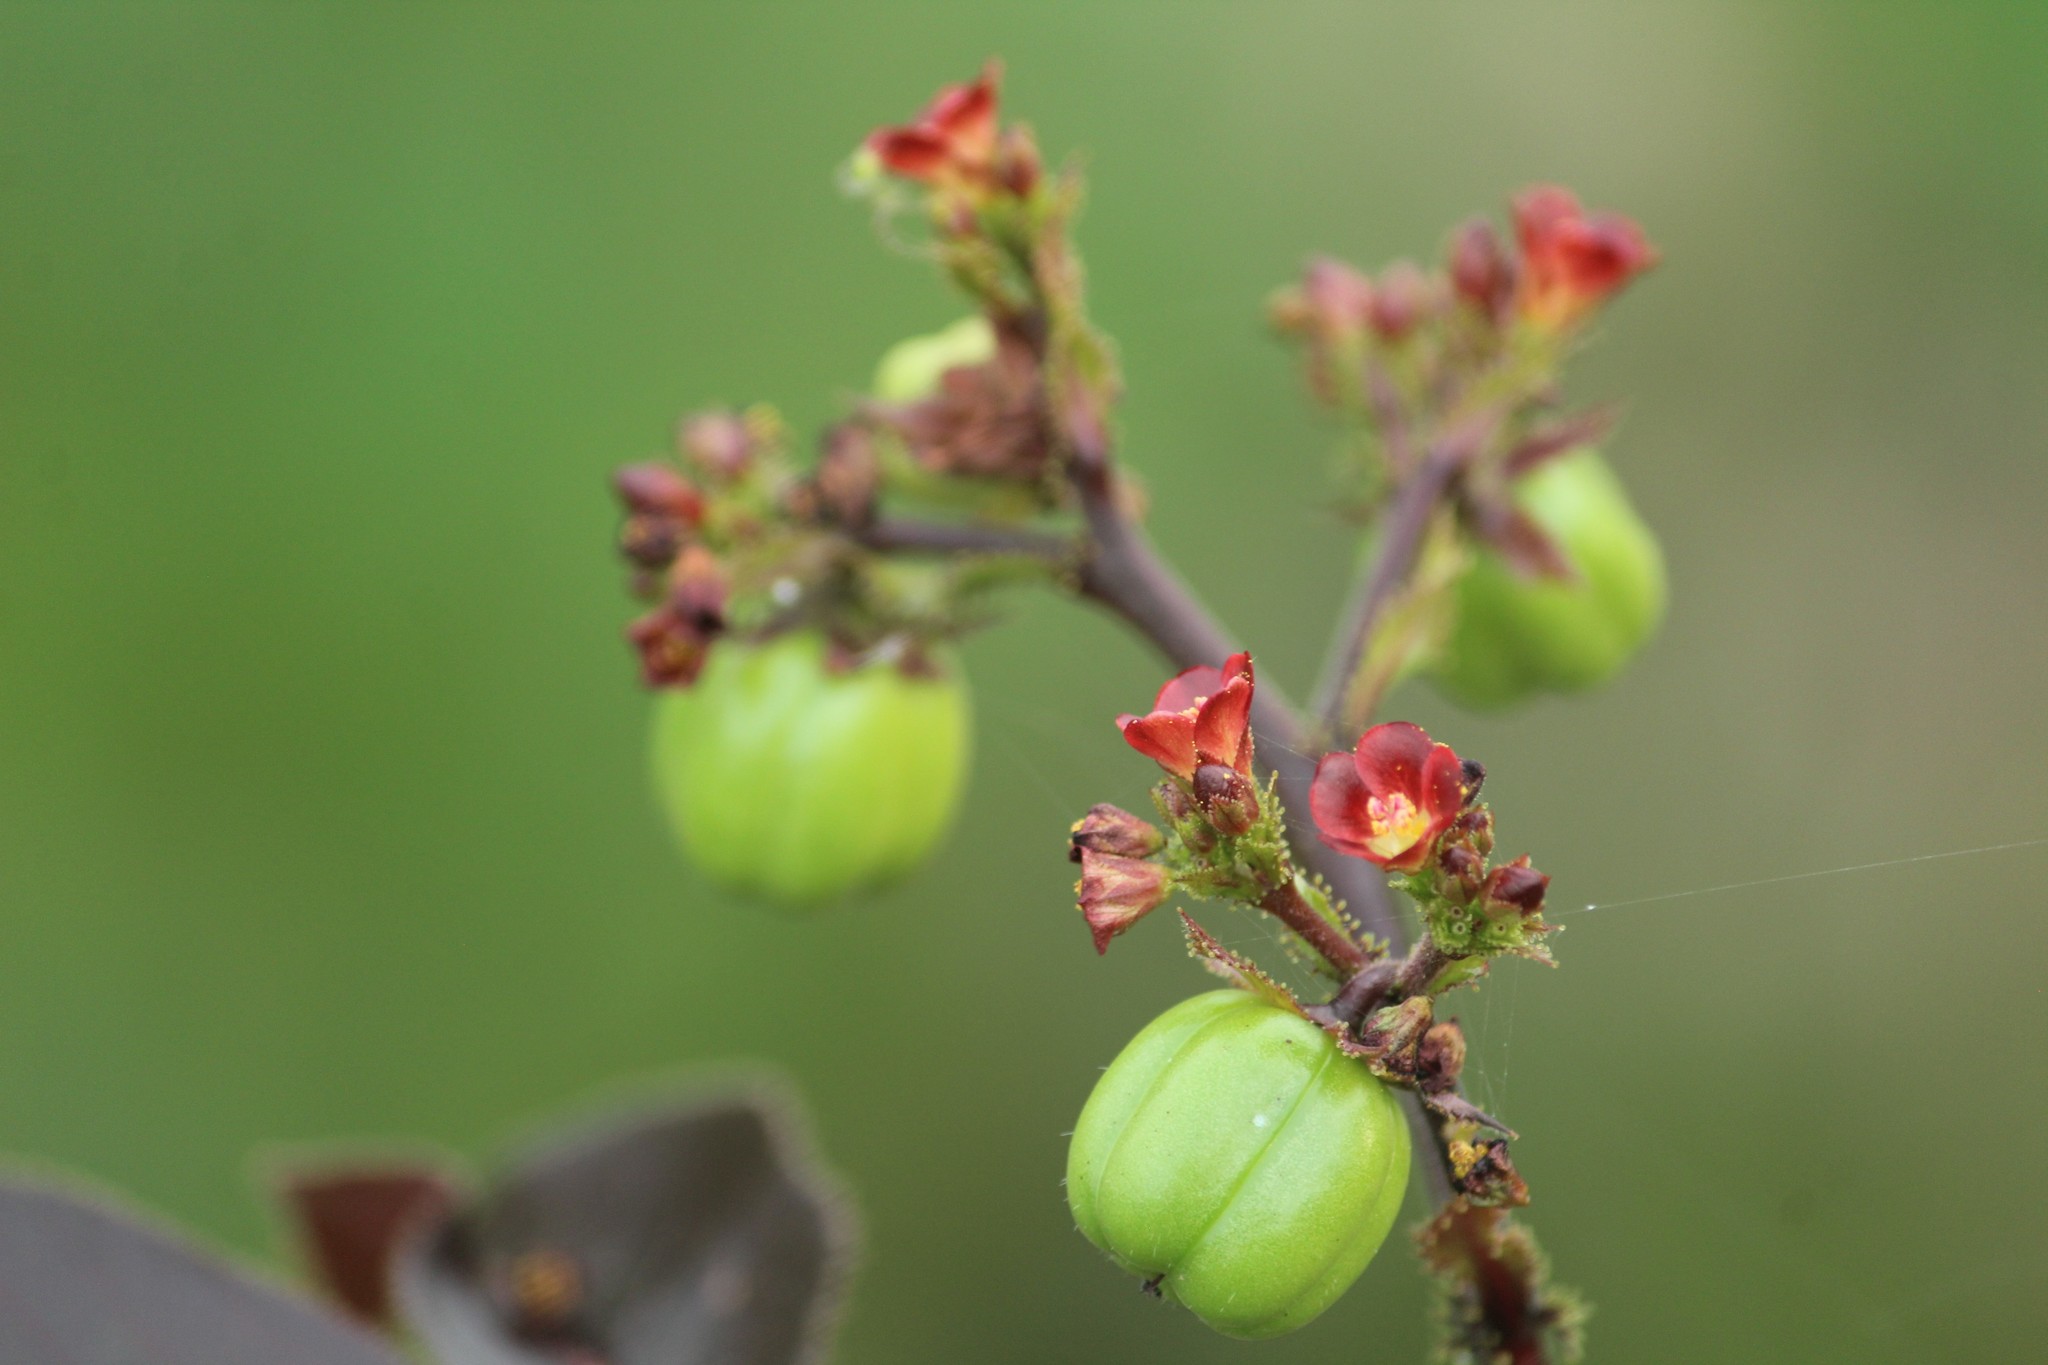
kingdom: Plantae
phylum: Tracheophyta
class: Magnoliopsida
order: Malpighiales
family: Euphorbiaceae
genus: Jatropha
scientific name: Jatropha gossypiifolia
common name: Bellyache bush
